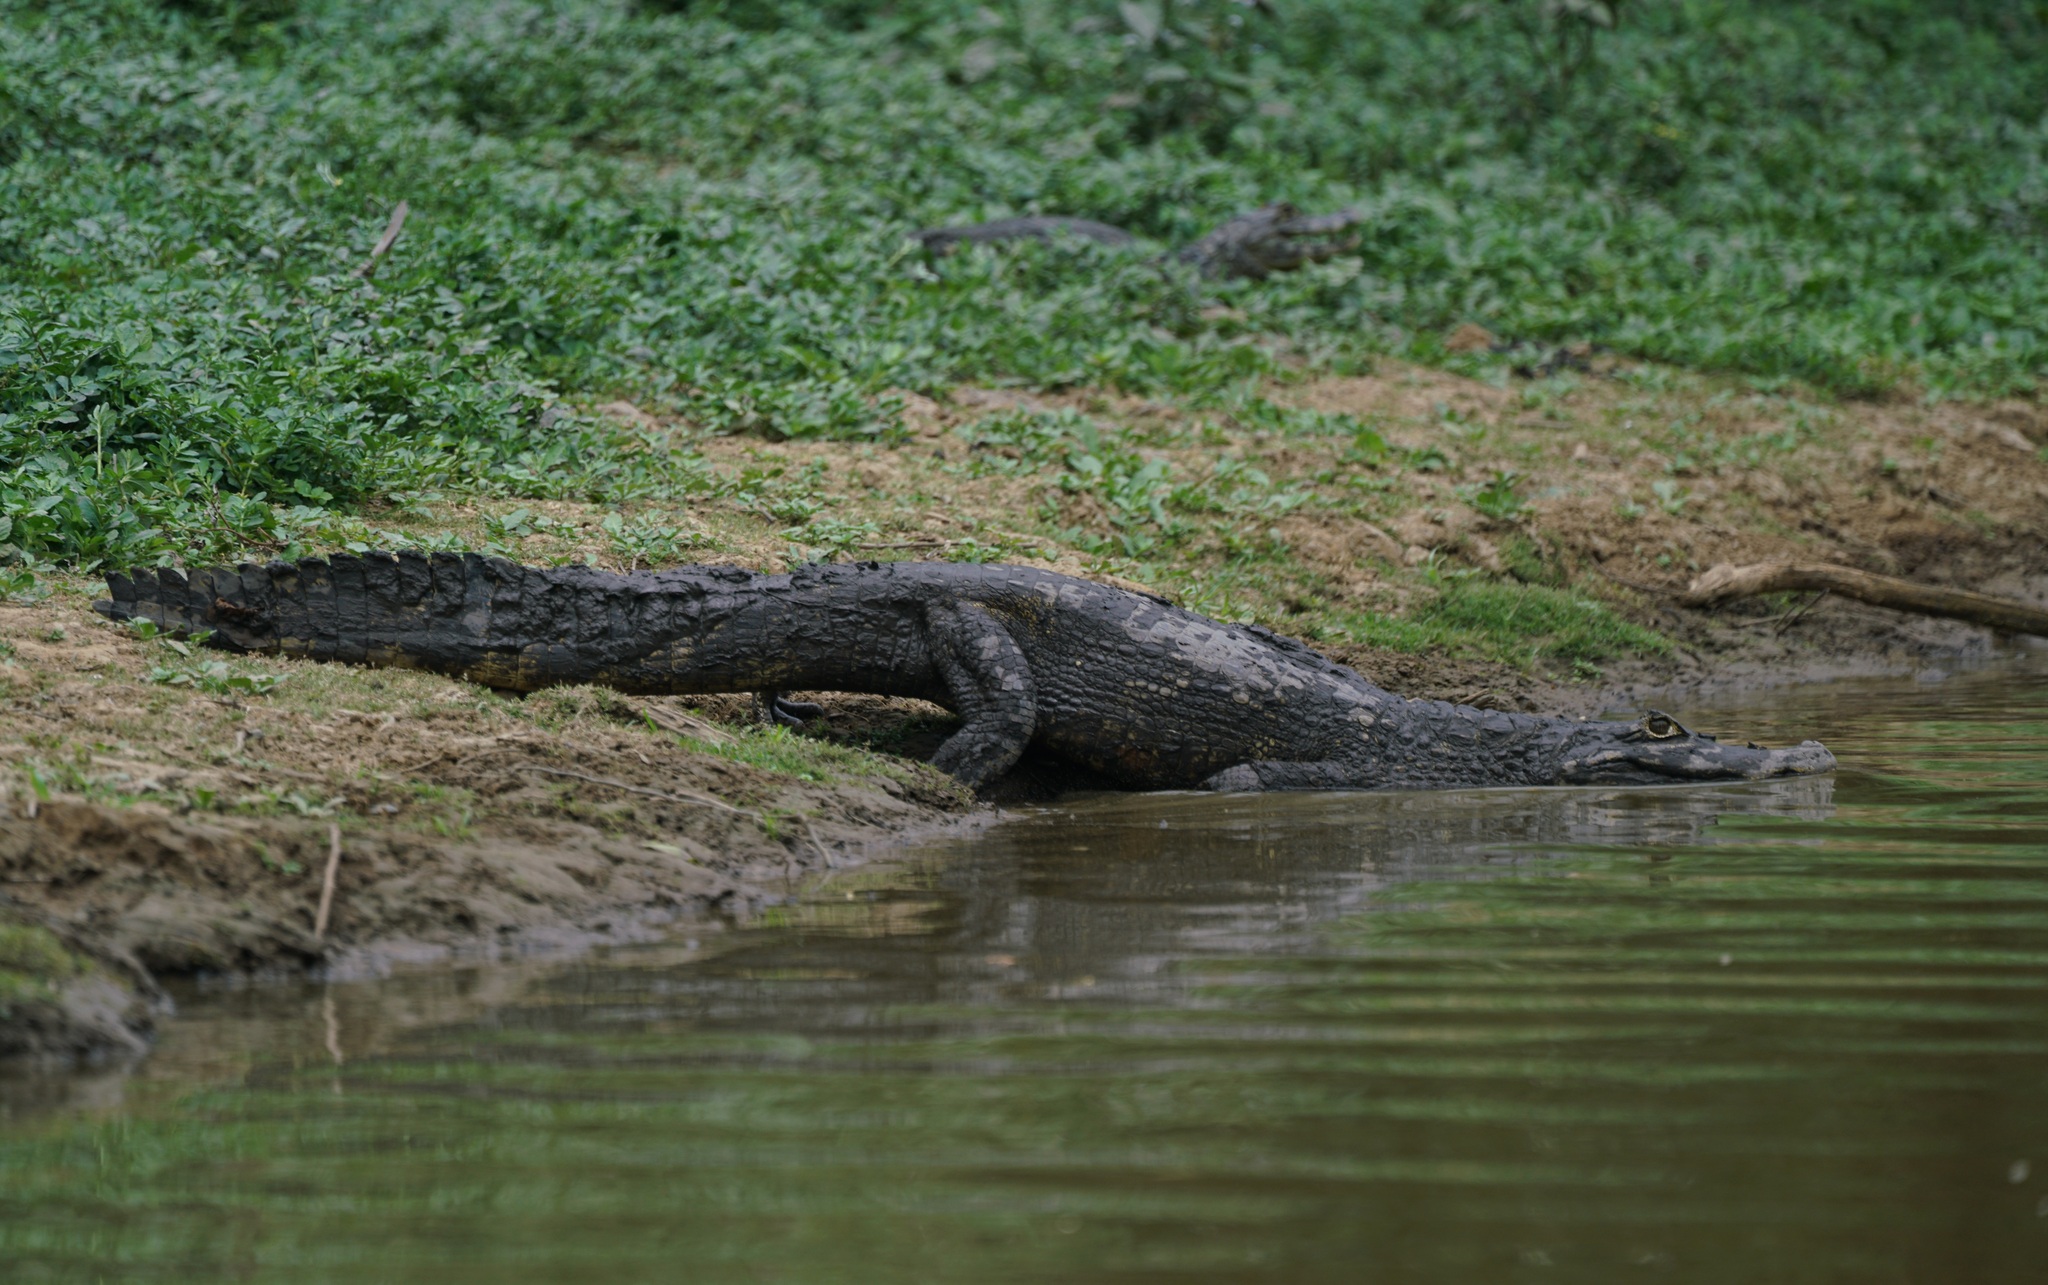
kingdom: Animalia
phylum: Chordata
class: Crocodylia
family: Alligatoridae
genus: Caiman
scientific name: Caiman yacare
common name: Yacare caiman
